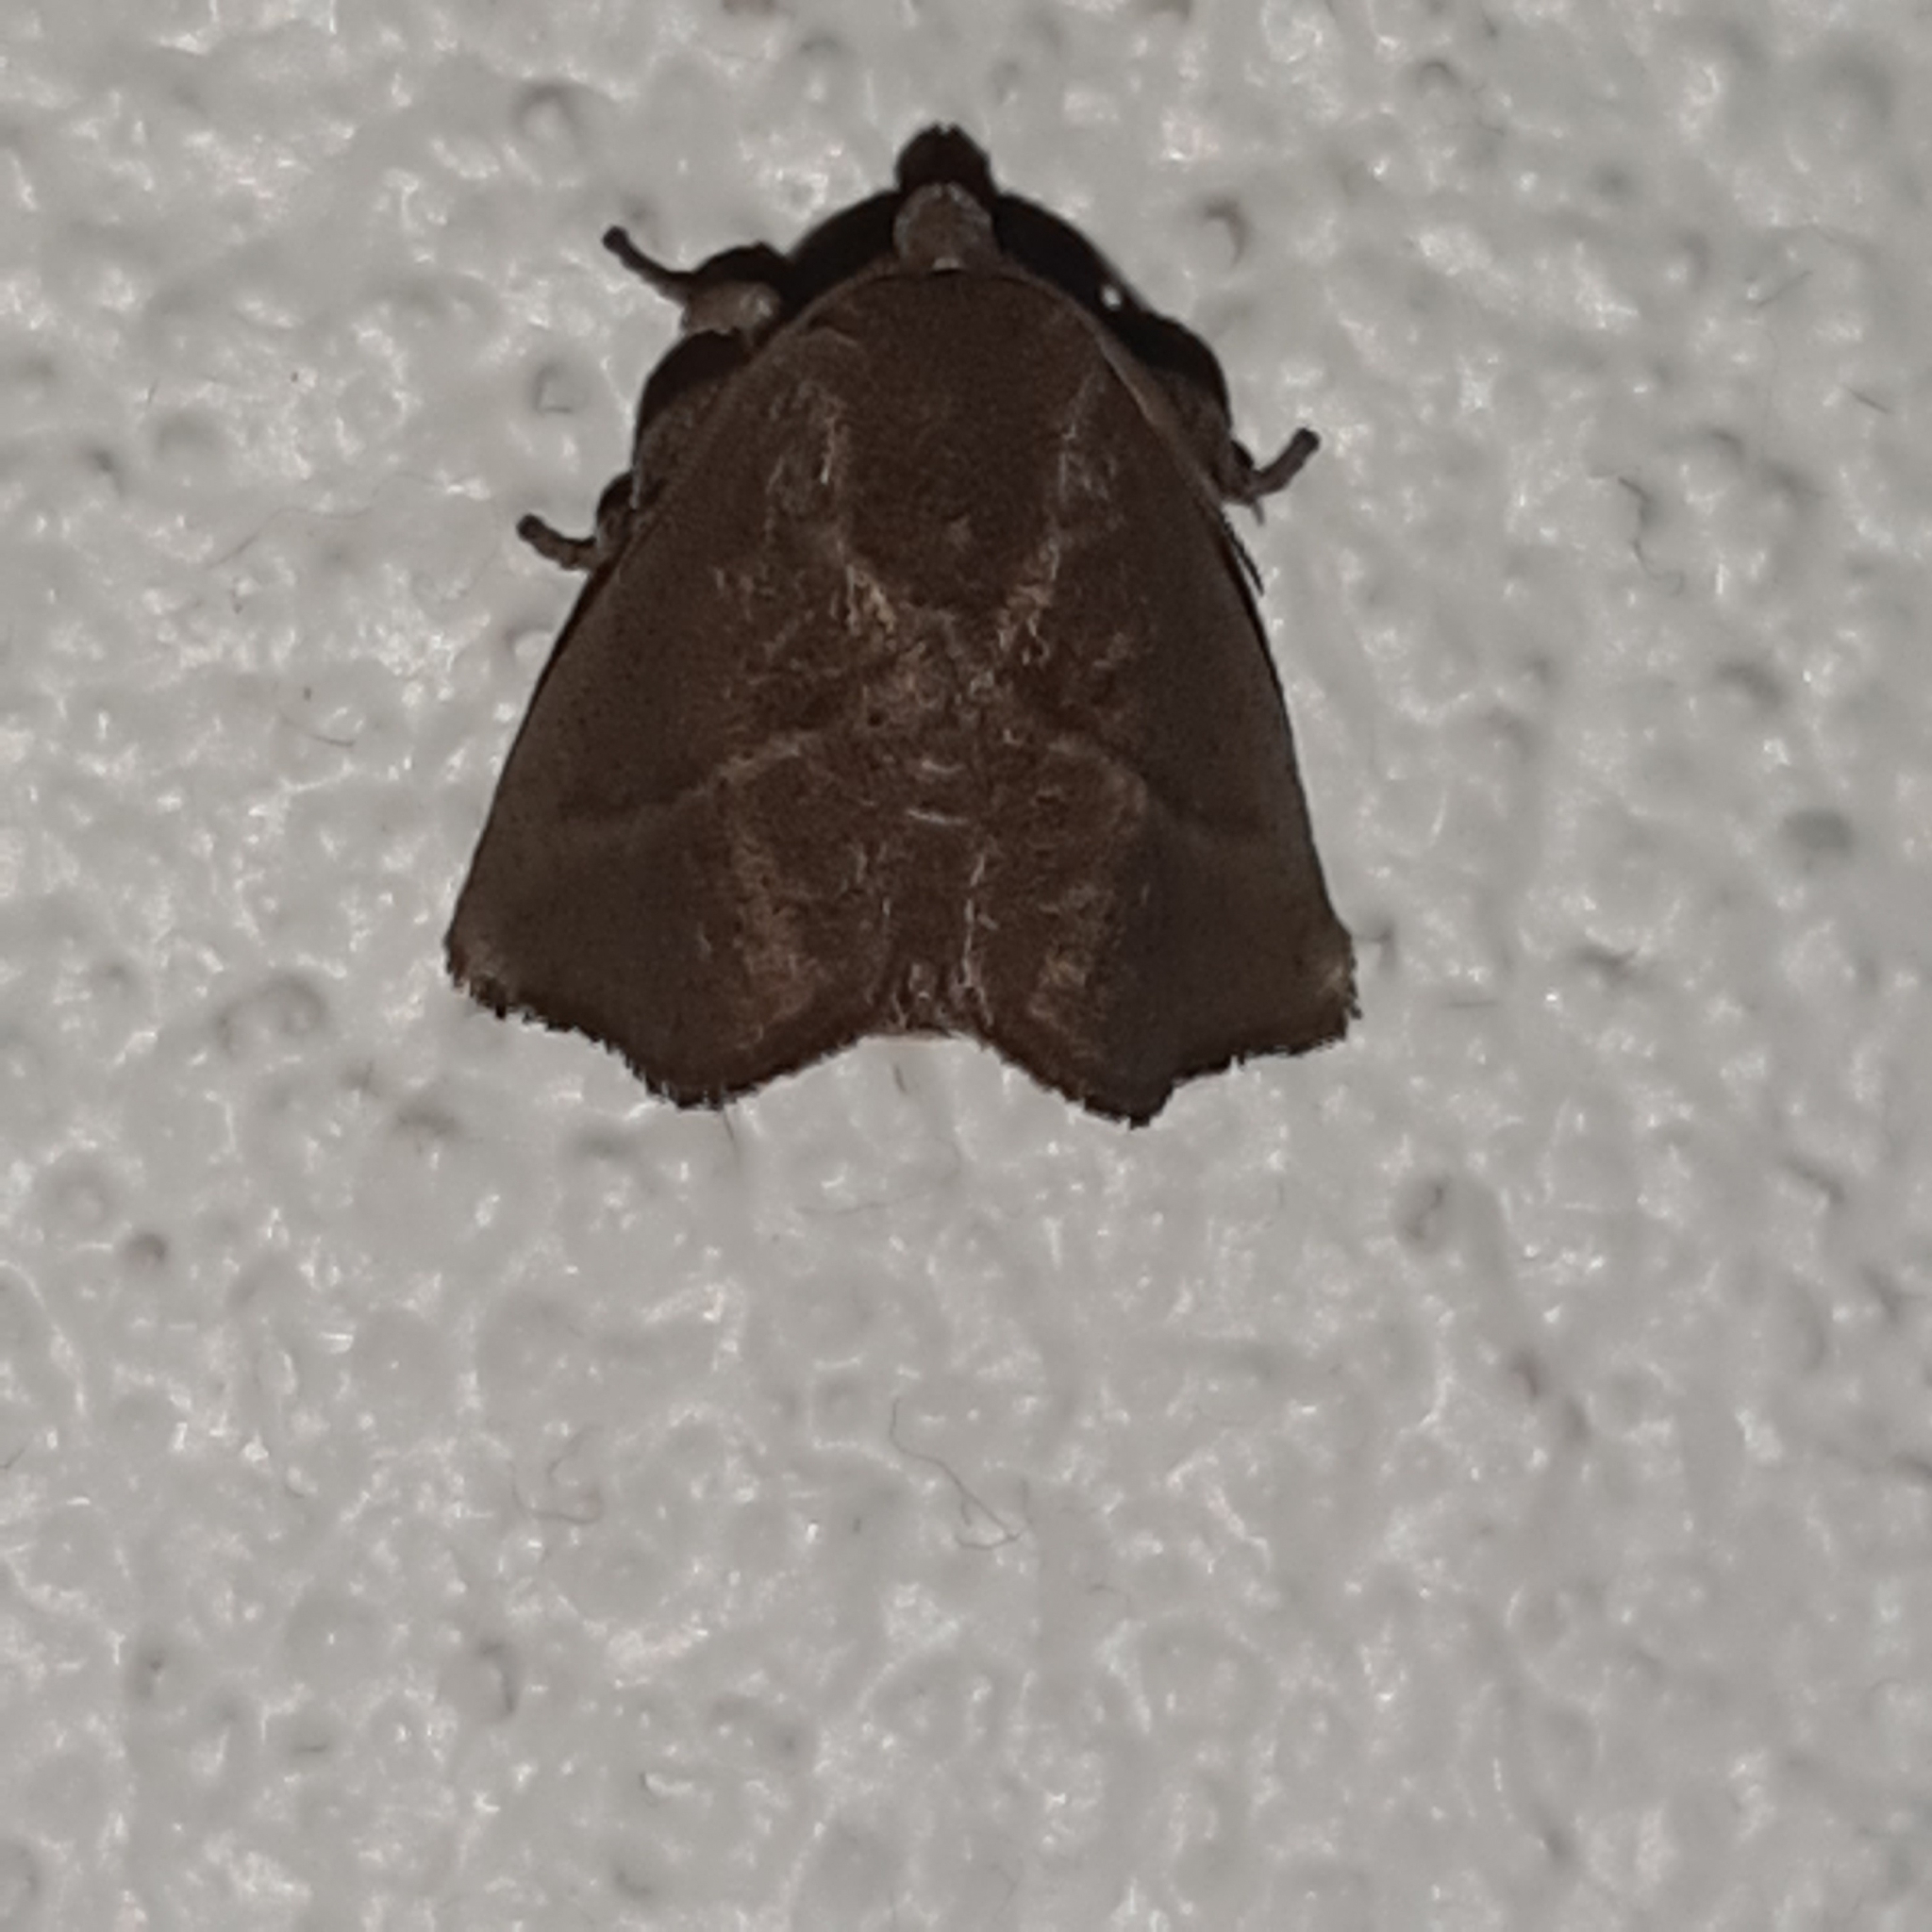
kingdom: Animalia
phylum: Arthropoda
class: Insecta
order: Lepidoptera
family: Limacodidae
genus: Epiclea
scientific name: Epiclea elaea
